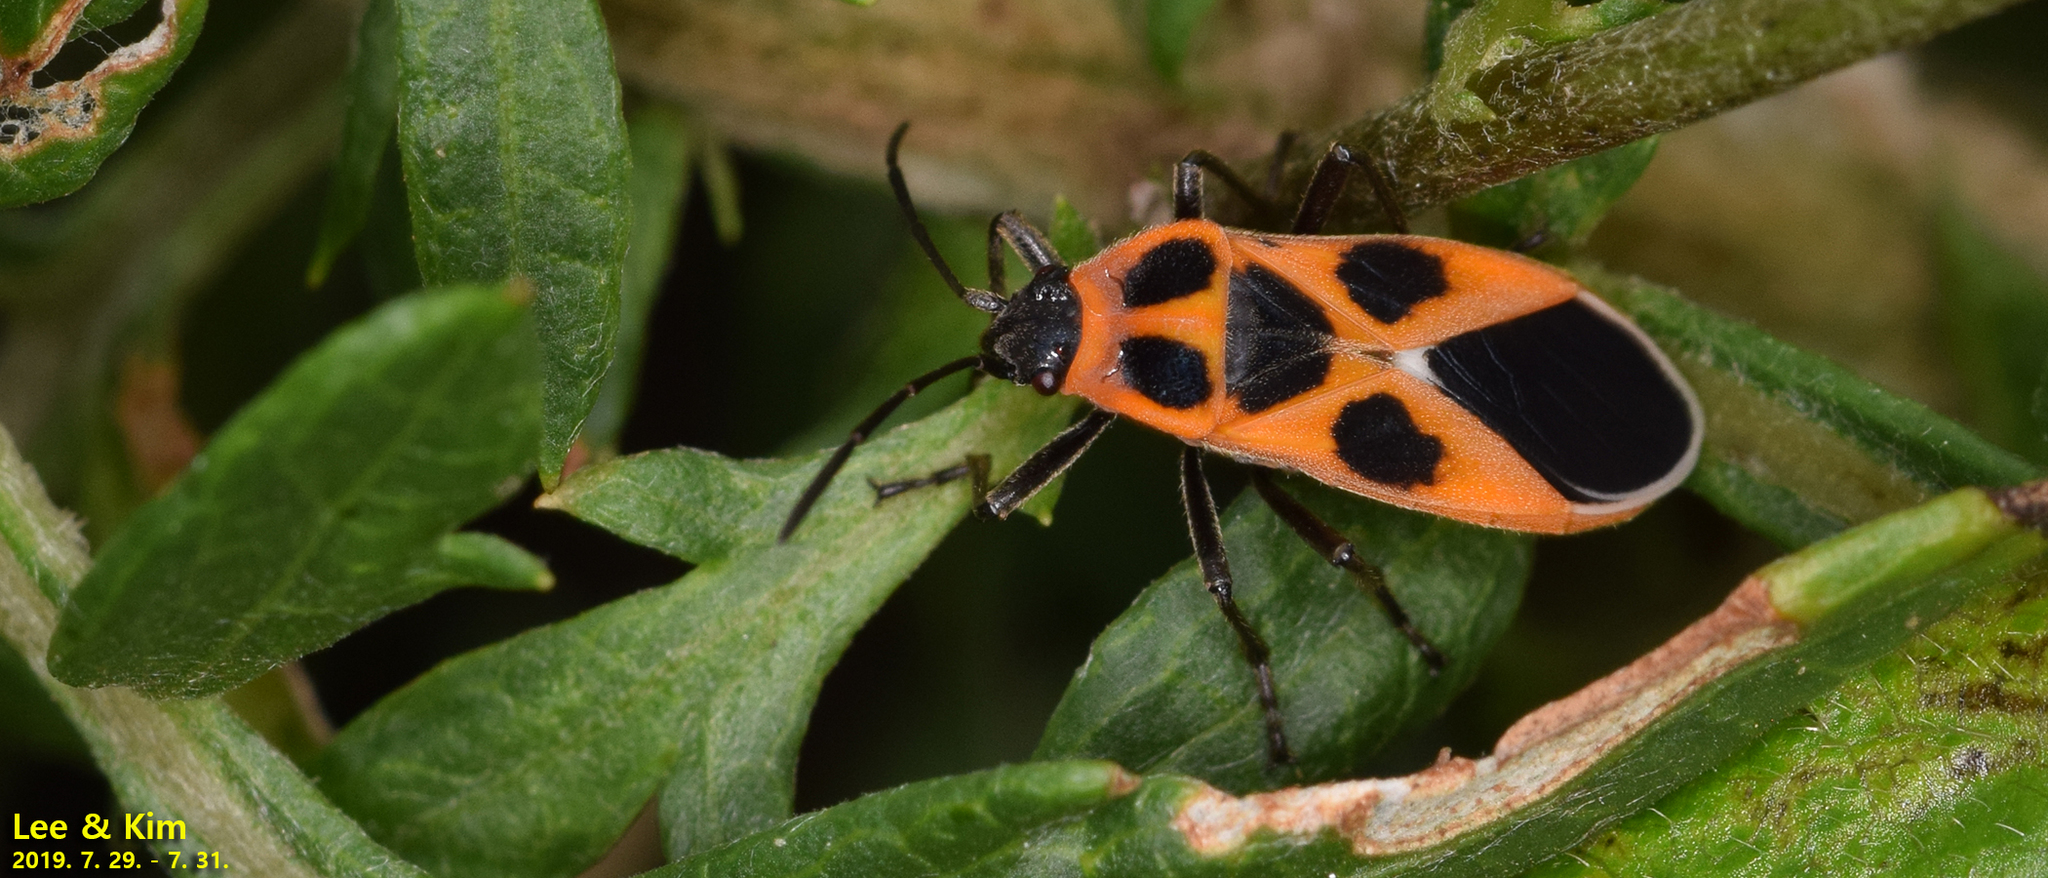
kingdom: Animalia
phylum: Arthropoda
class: Insecta
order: Hemiptera
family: Lygaeidae
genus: Tropidothorax
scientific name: Tropidothorax
